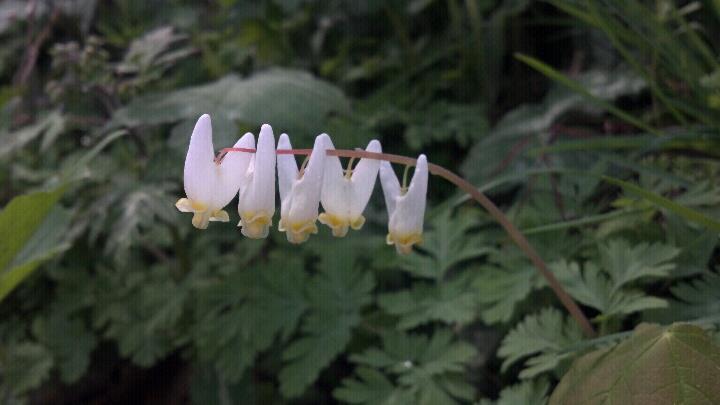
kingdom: Plantae
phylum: Tracheophyta
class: Magnoliopsida
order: Ranunculales
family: Papaveraceae
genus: Dicentra
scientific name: Dicentra cucullaria
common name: Dutchman's breeches
